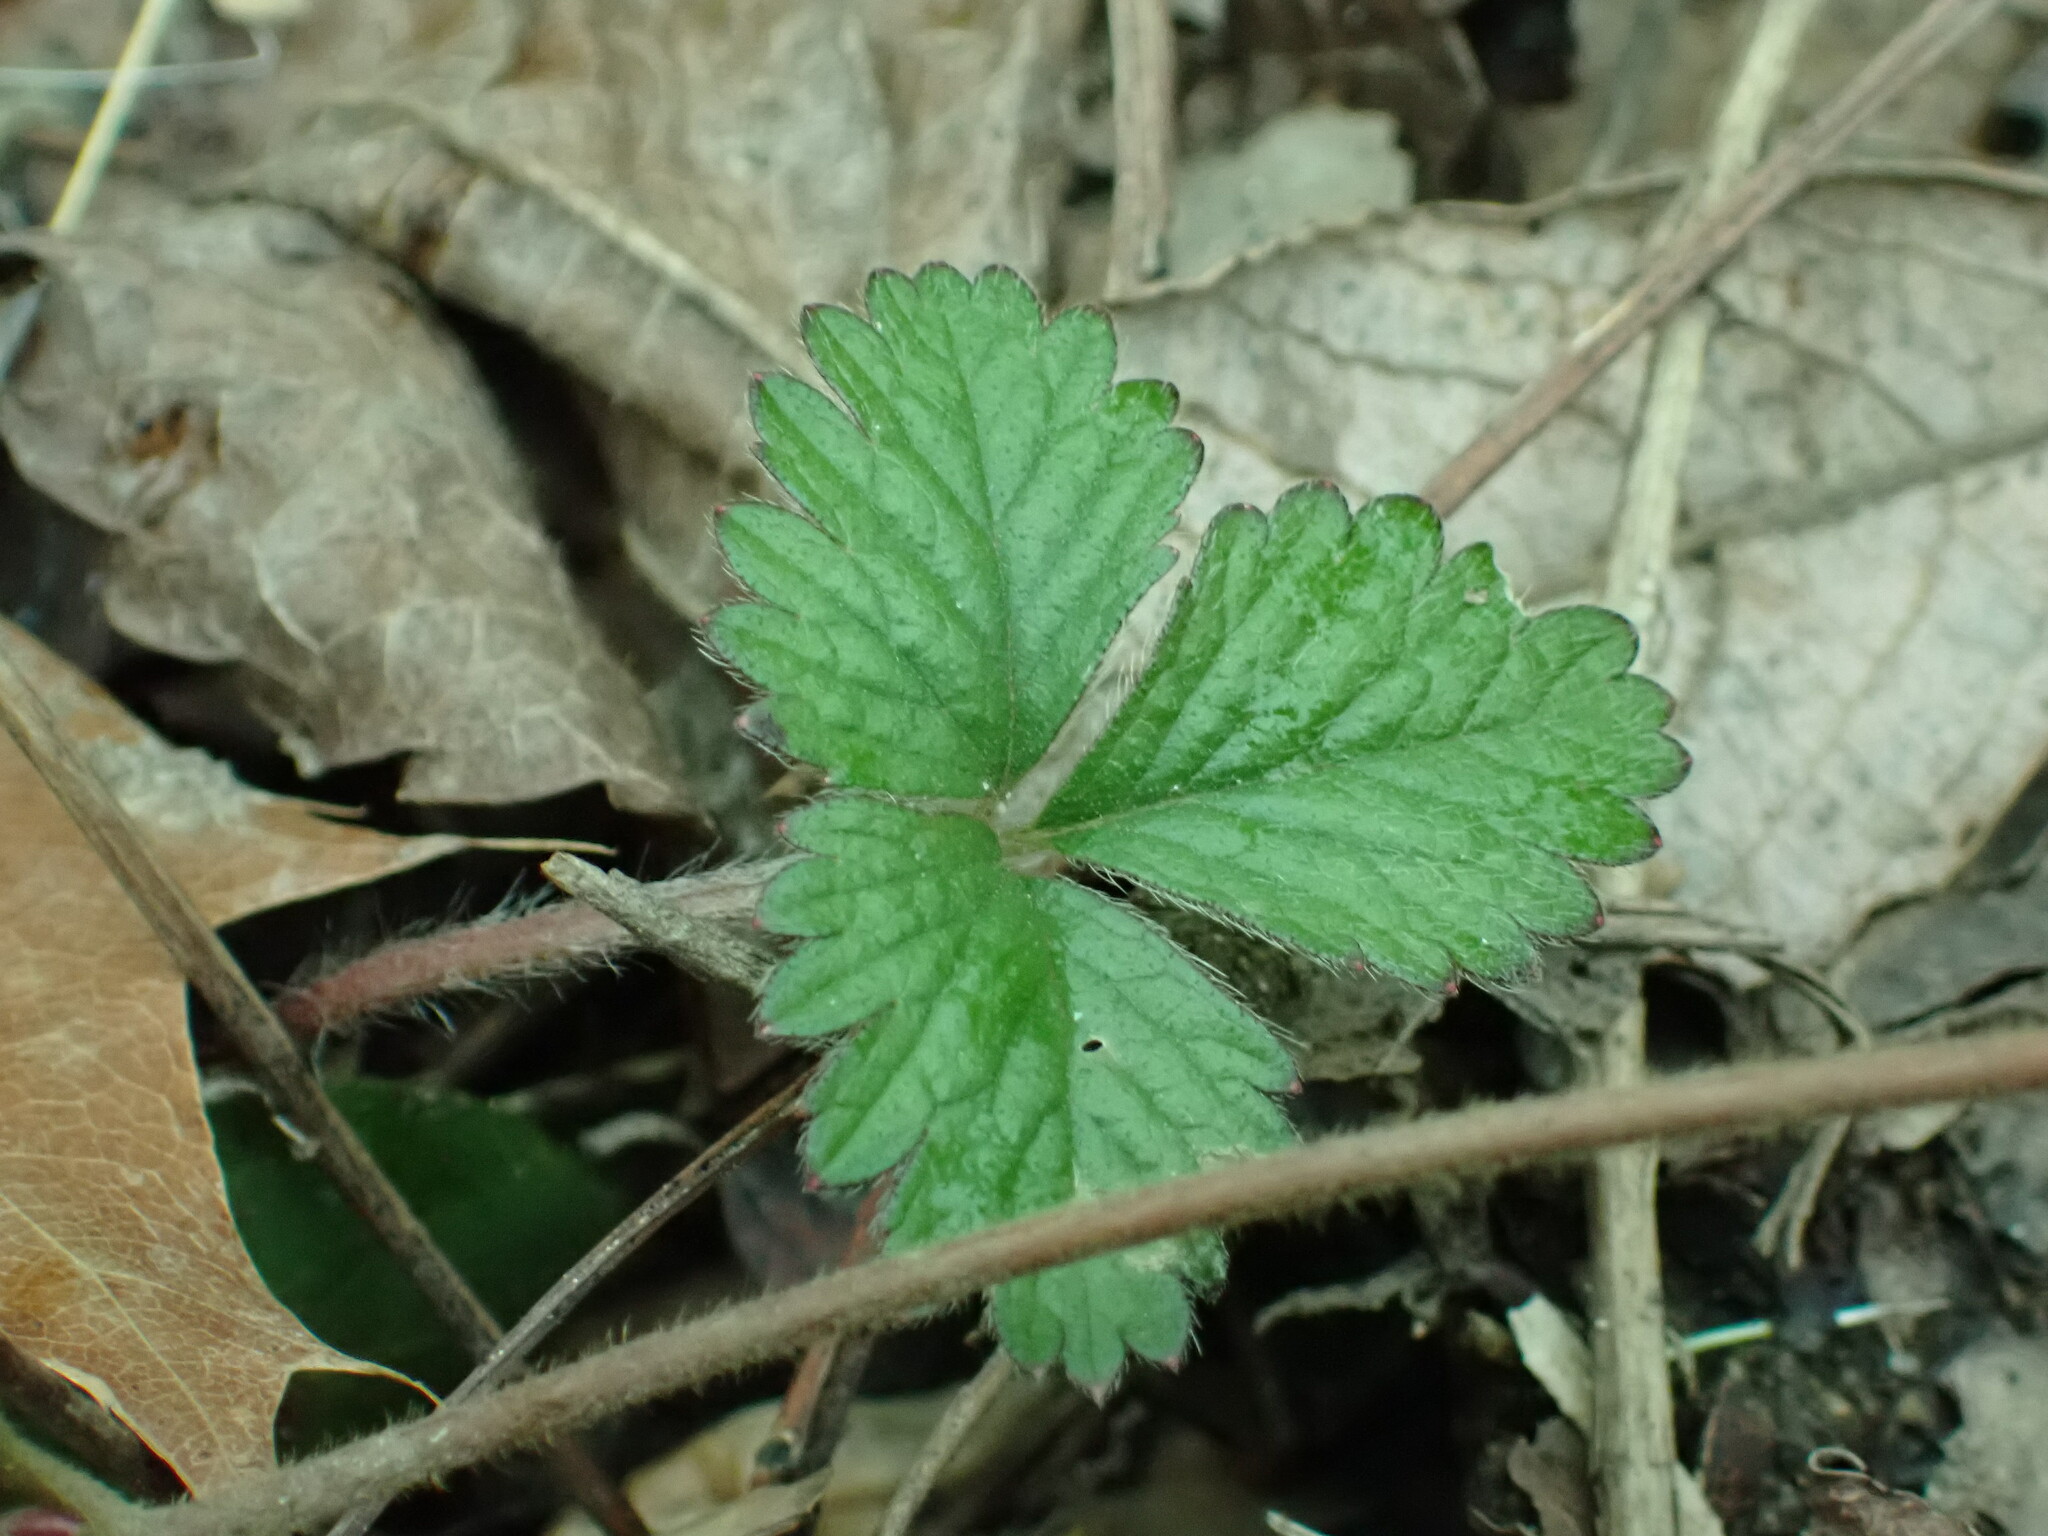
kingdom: Plantae
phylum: Tracheophyta
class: Magnoliopsida
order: Rosales
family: Rosaceae
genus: Potentilla
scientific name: Potentilla indica
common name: Yellow-flowered strawberry
